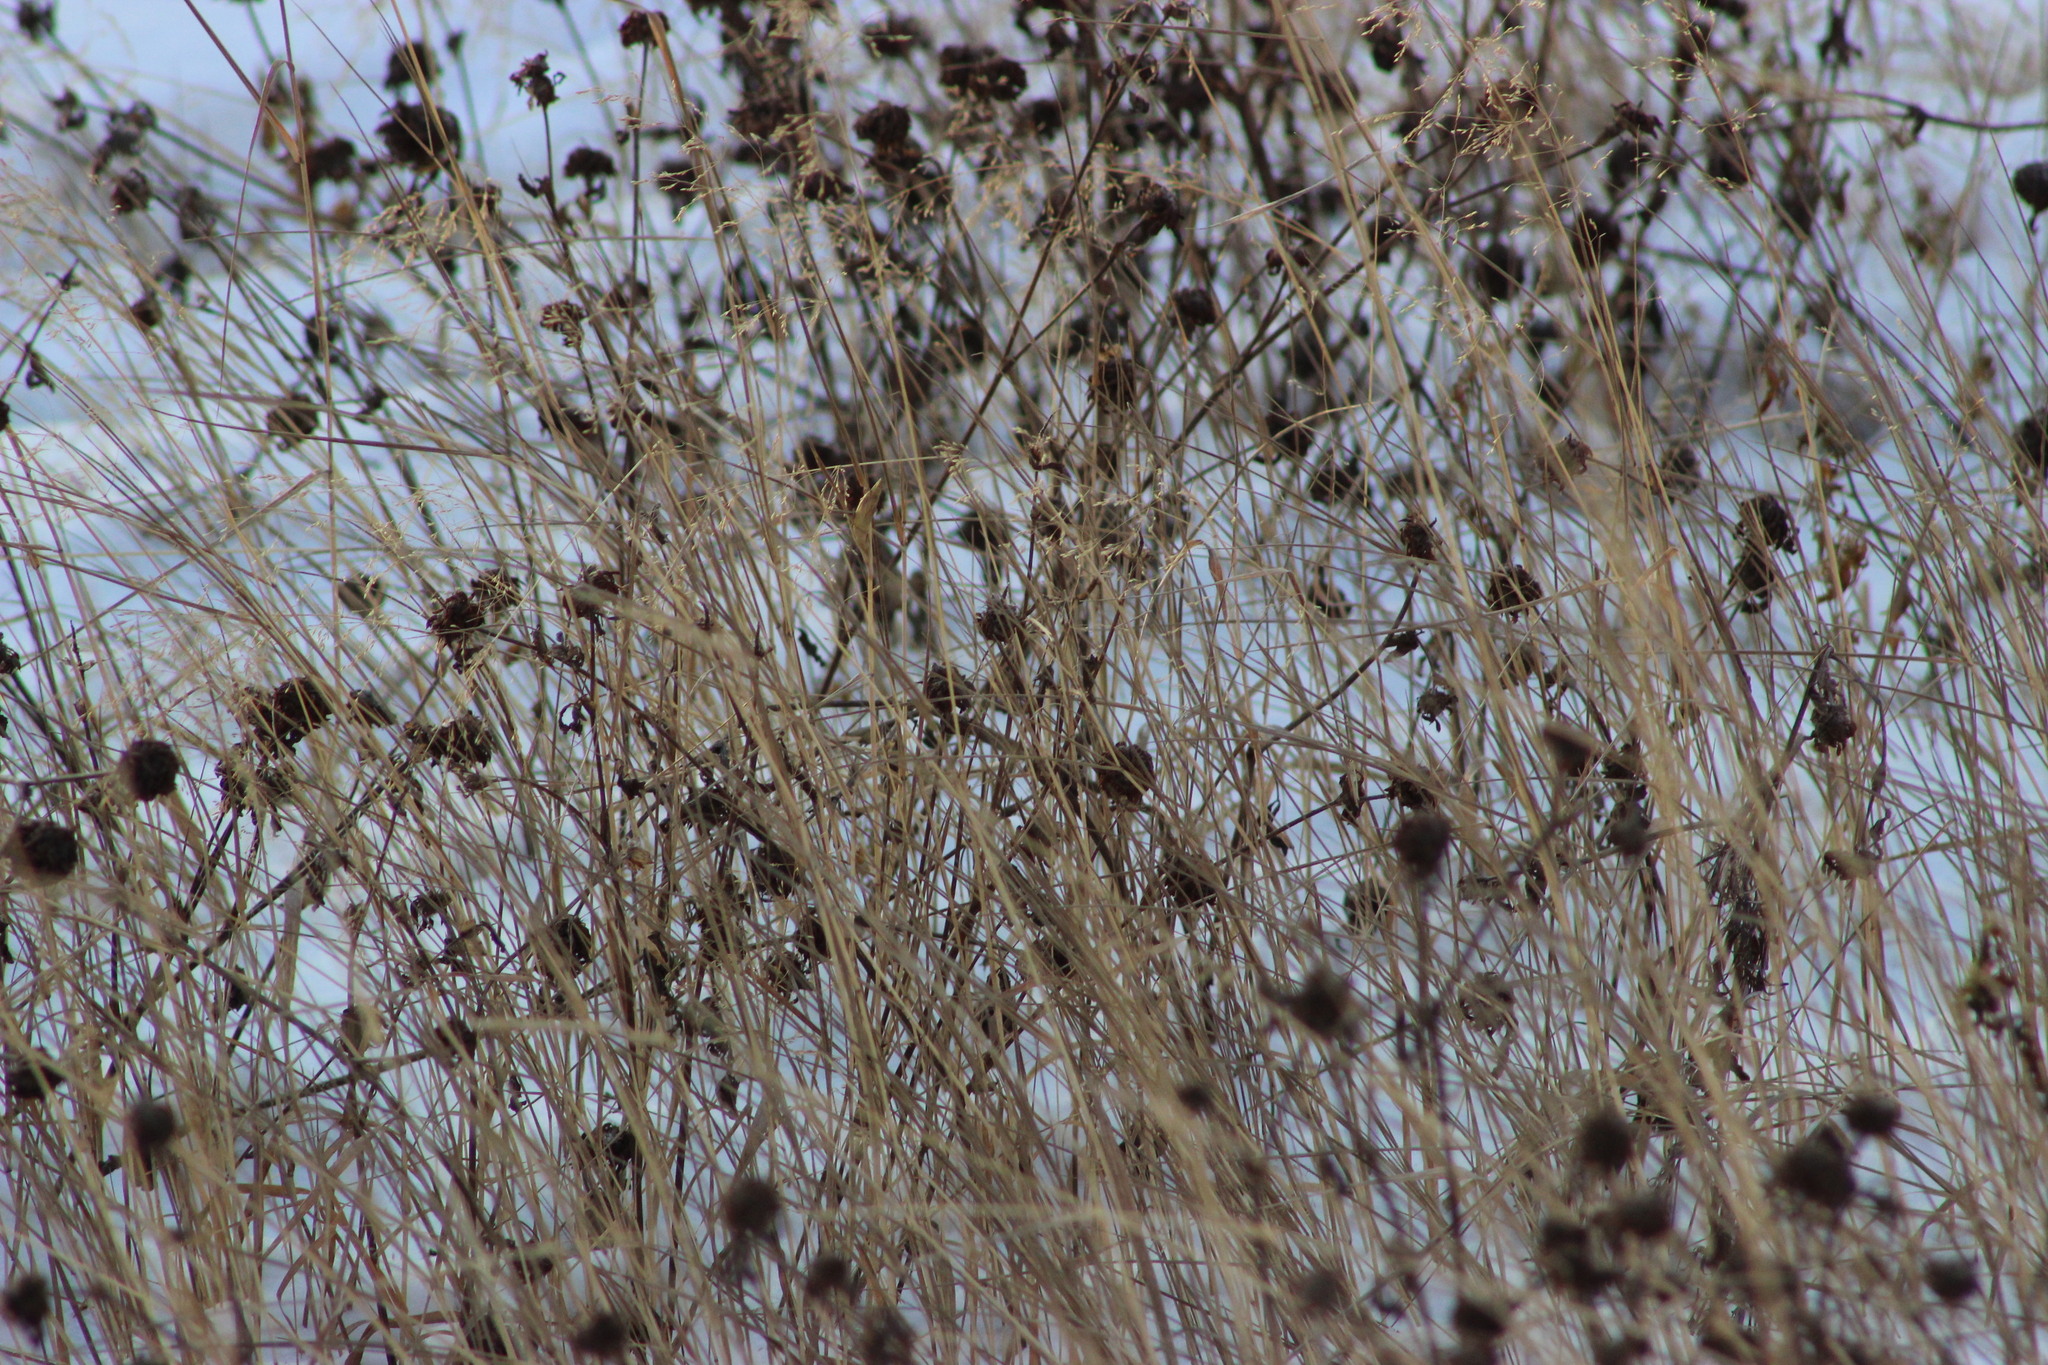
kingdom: Plantae
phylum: Tracheophyta
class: Magnoliopsida
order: Fabales
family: Fabaceae
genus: Trifolium
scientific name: Trifolium pratense
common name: Red clover
